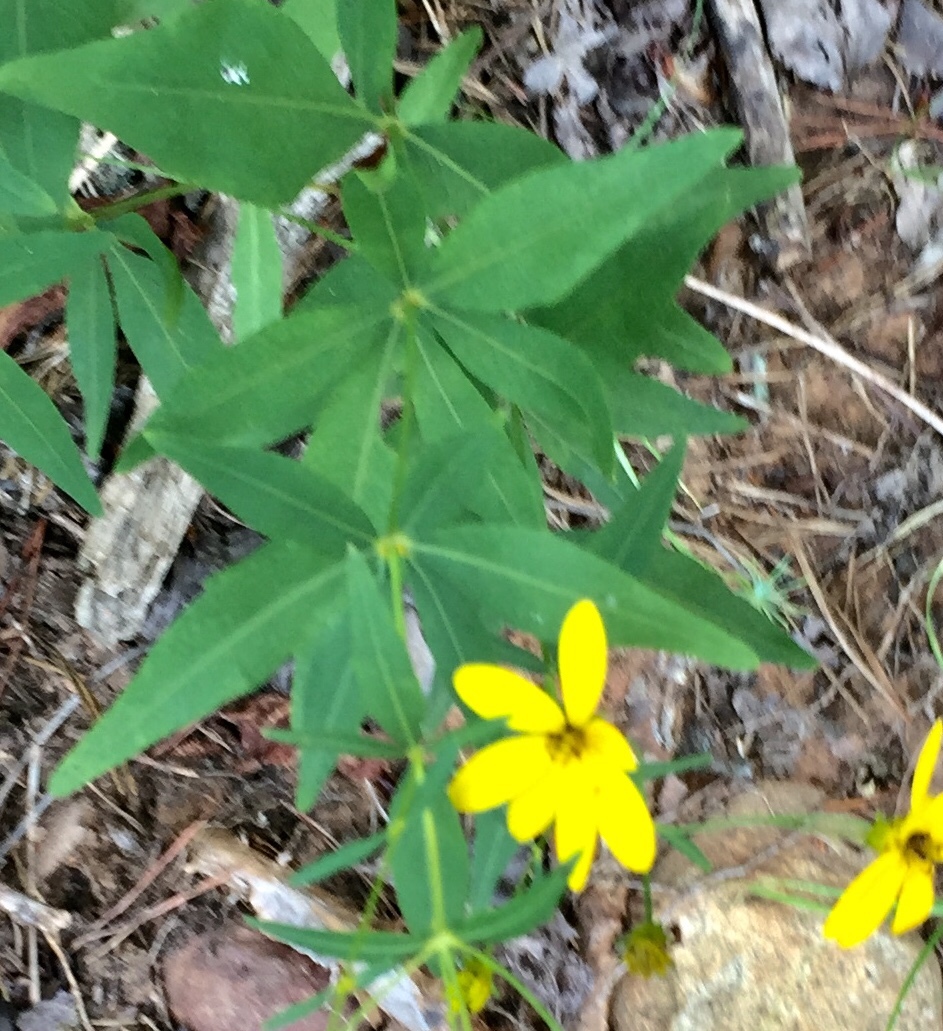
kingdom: Plantae
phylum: Tracheophyta
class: Magnoliopsida
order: Asterales
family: Asteraceae
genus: Coreopsis
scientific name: Coreopsis major
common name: Forest tickseed
